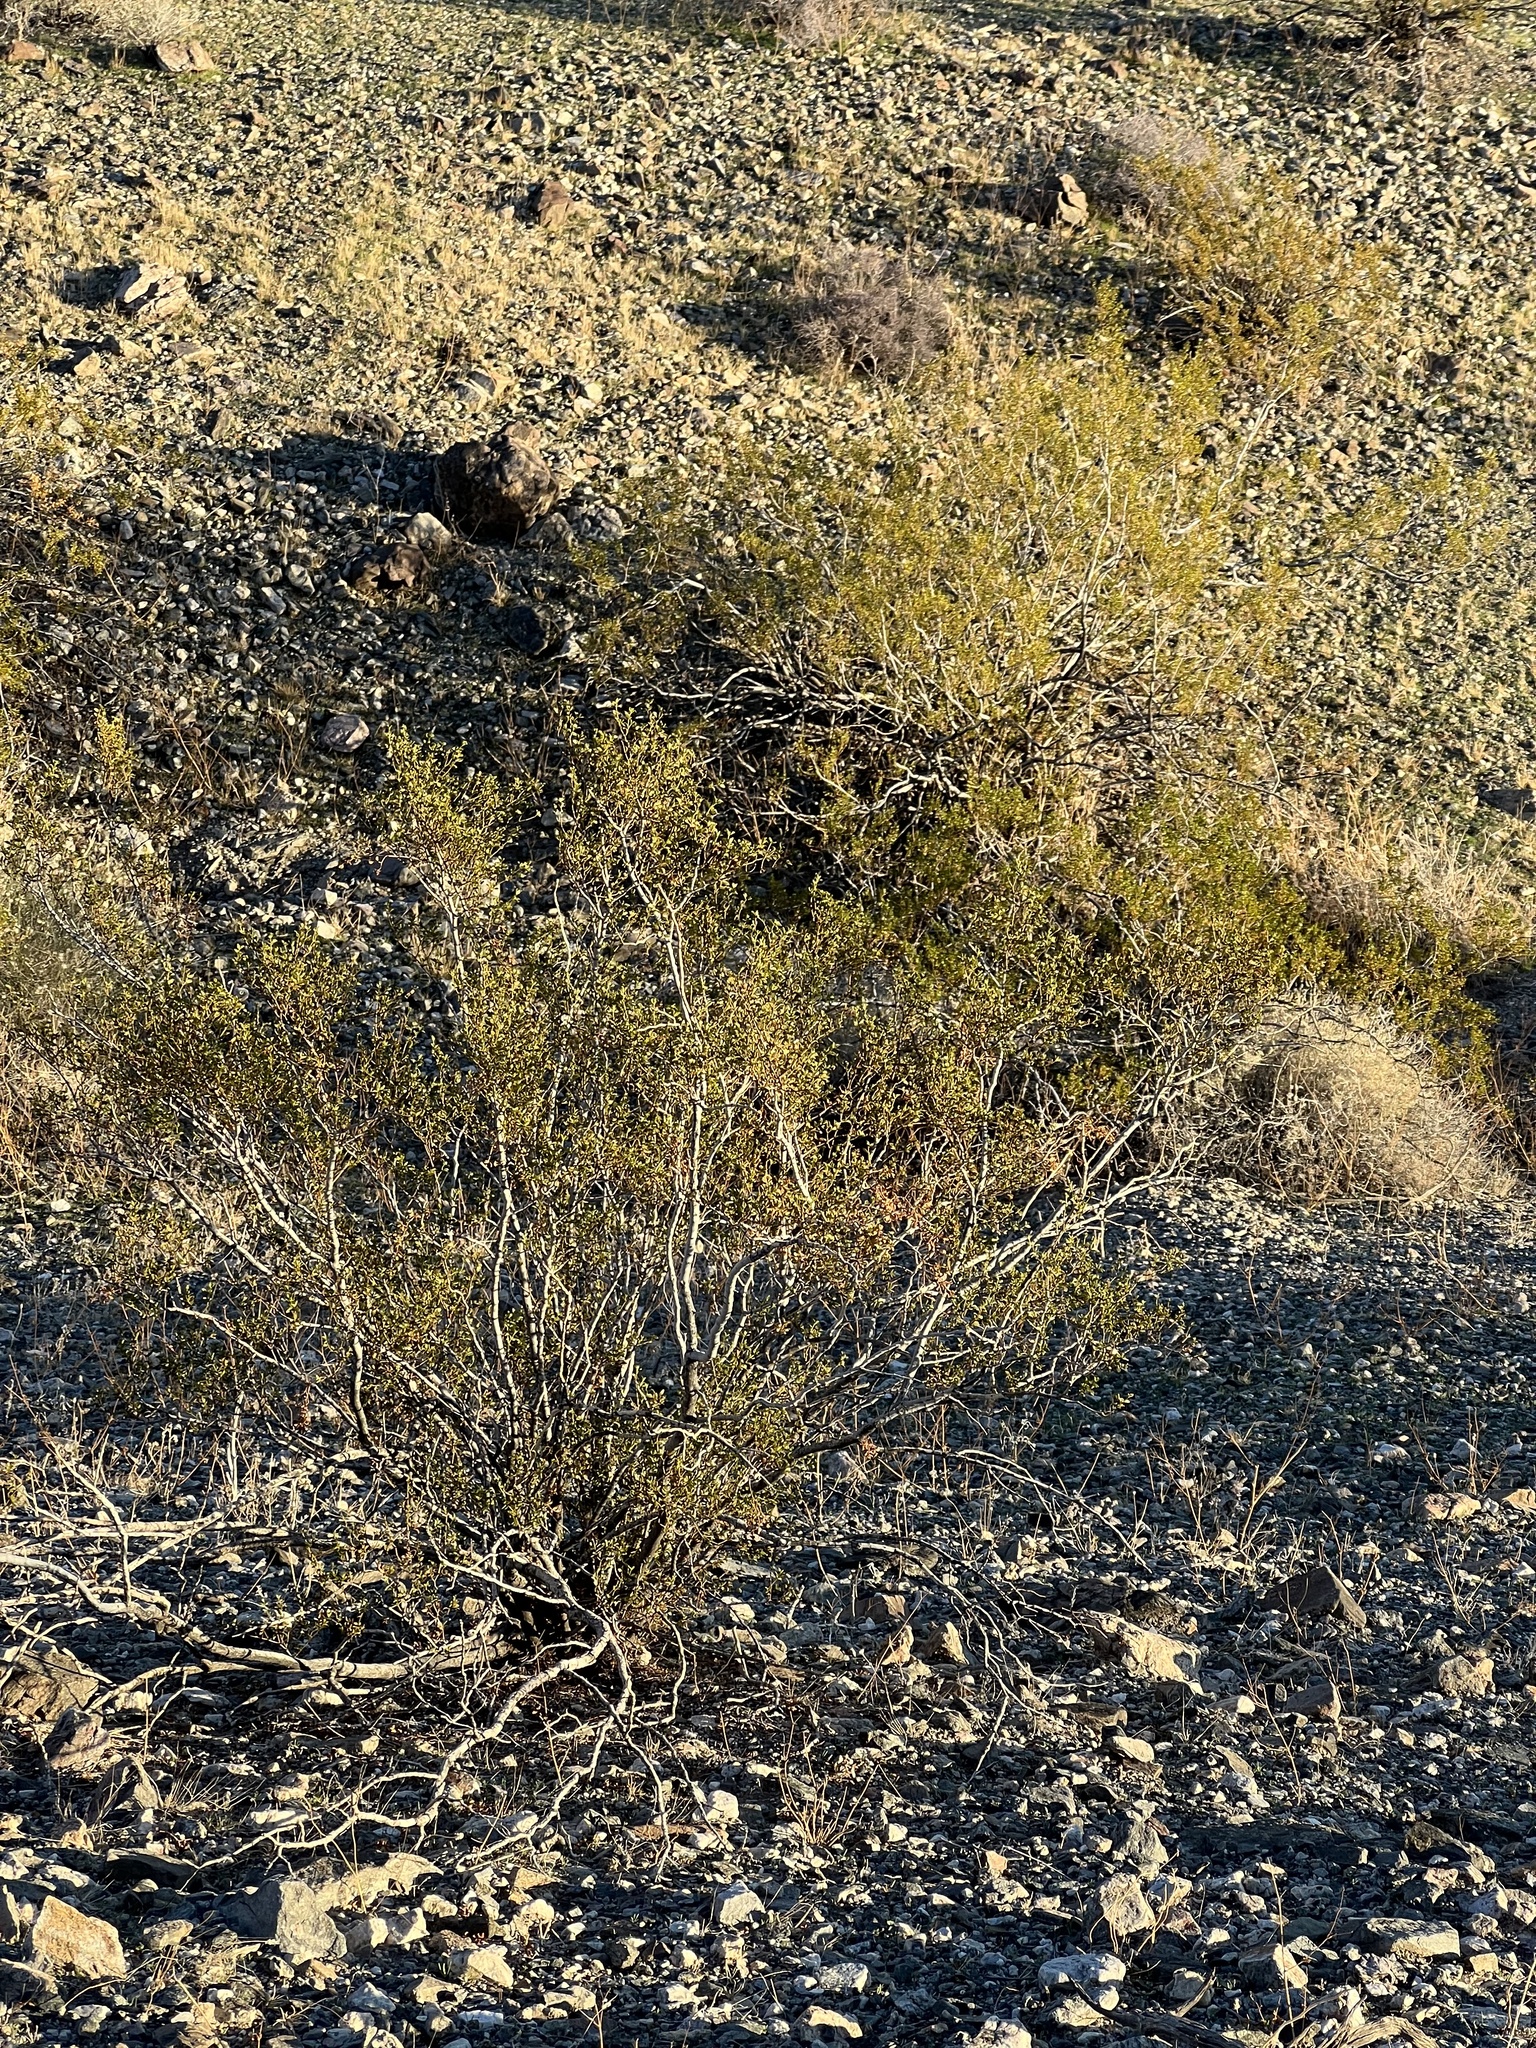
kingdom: Plantae
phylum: Tracheophyta
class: Magnoliopsida
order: Zygophyllales
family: Zygophyllaceae
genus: Larrea
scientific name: Larrea tridentata
